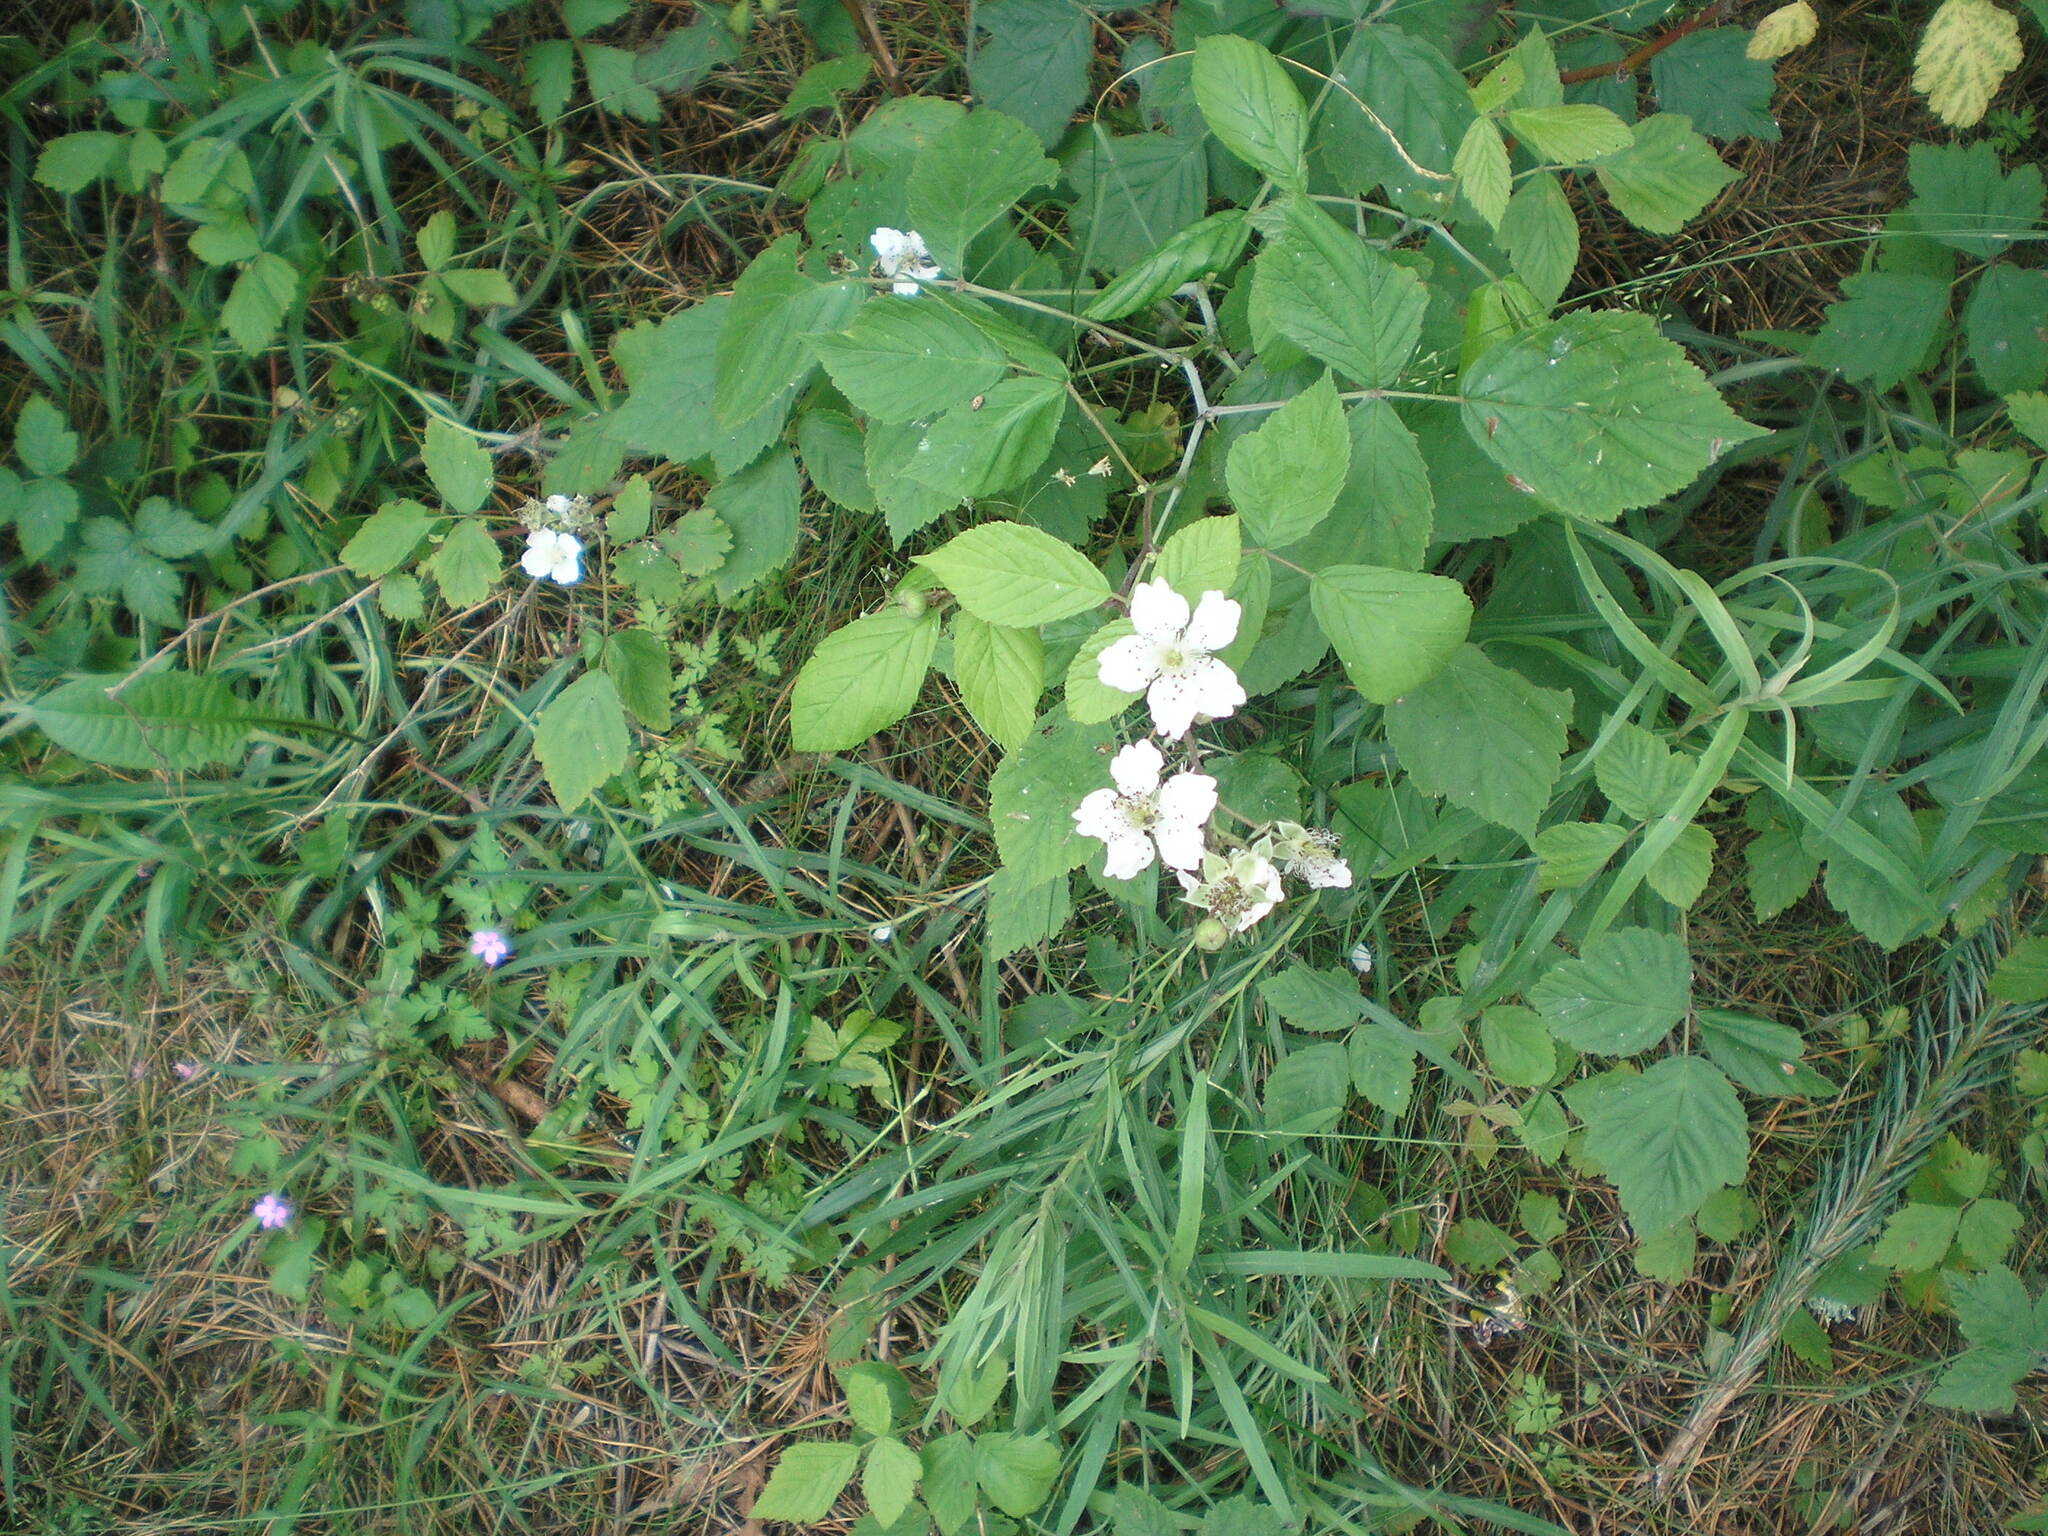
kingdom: Plantae
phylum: Tracheophyta
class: Magnoliopsida
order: Rosales
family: Rosaceae
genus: Rubus
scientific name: Rubus caesius
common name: Dewberry
